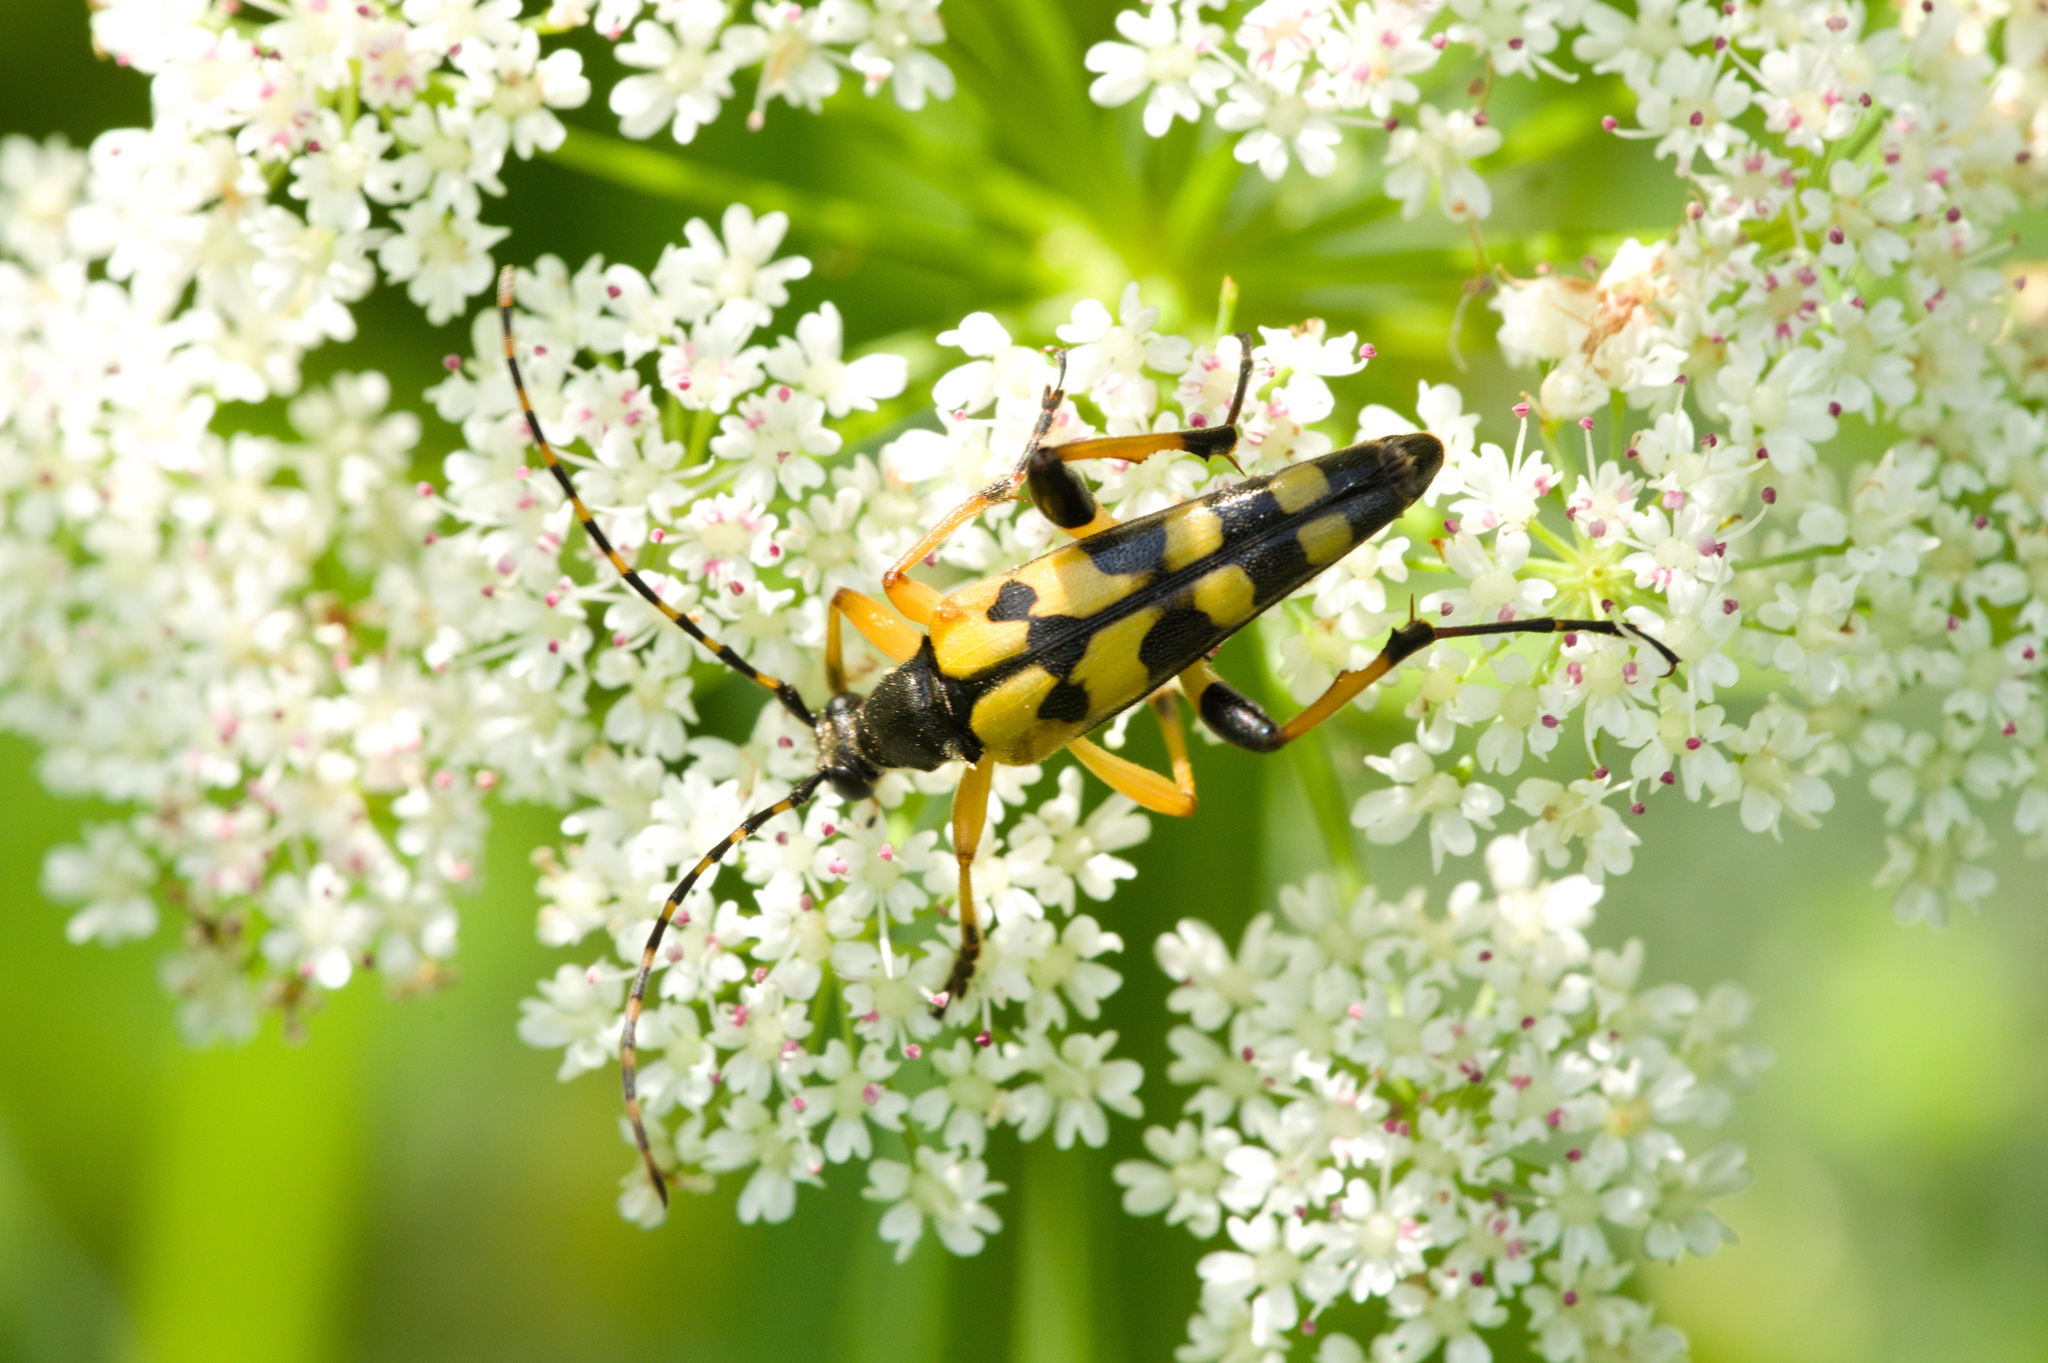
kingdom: Animalia
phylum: Arthropoda
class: Insecta
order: Coleoptera
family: Cerambycidae
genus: Rutpela
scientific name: Rutpela maculata
